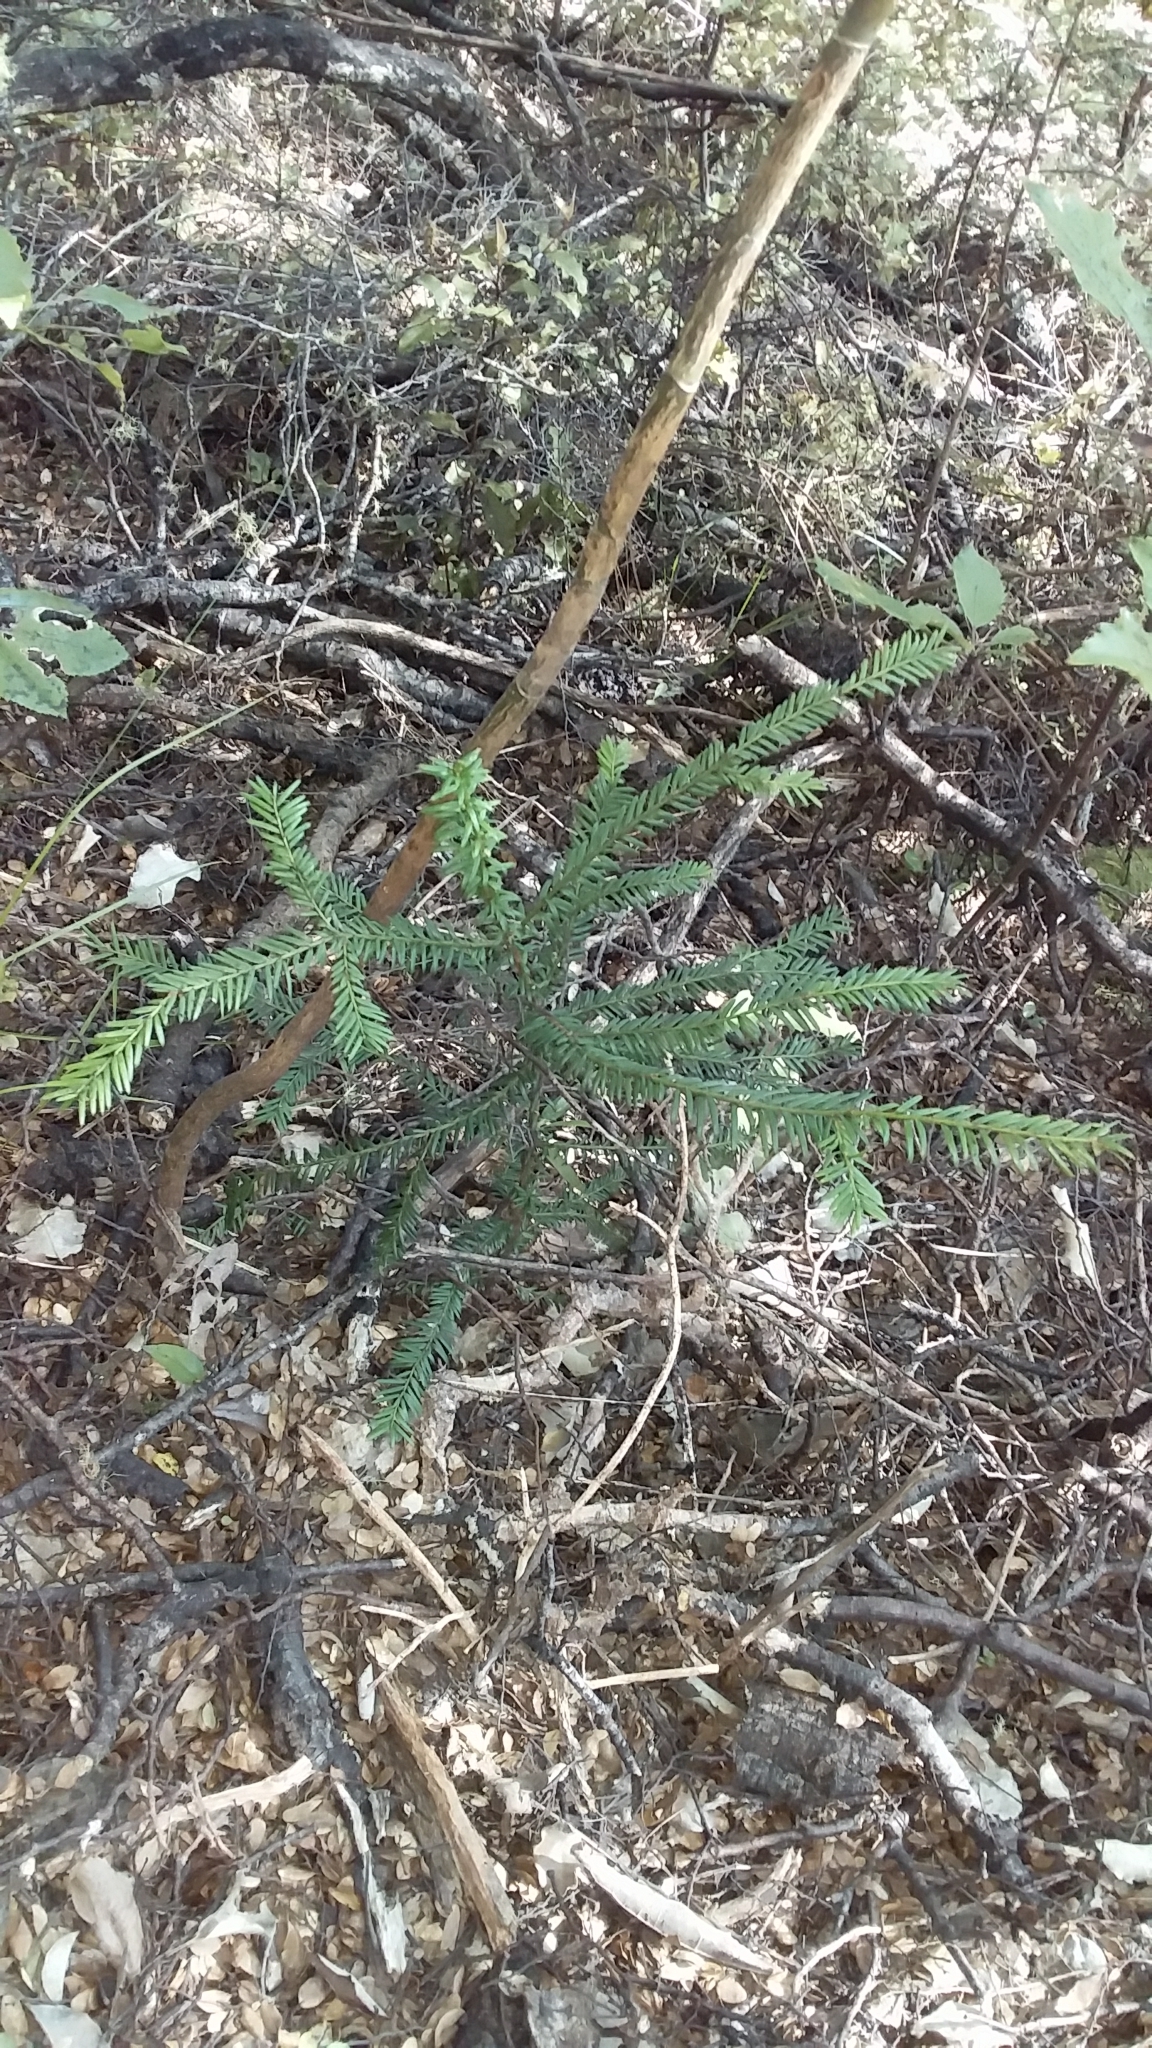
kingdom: Plantae
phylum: Tracheophyta
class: Pinopsida
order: Pinales
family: Taxaceae
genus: Taxus
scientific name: Taxus baccata
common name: Yew
